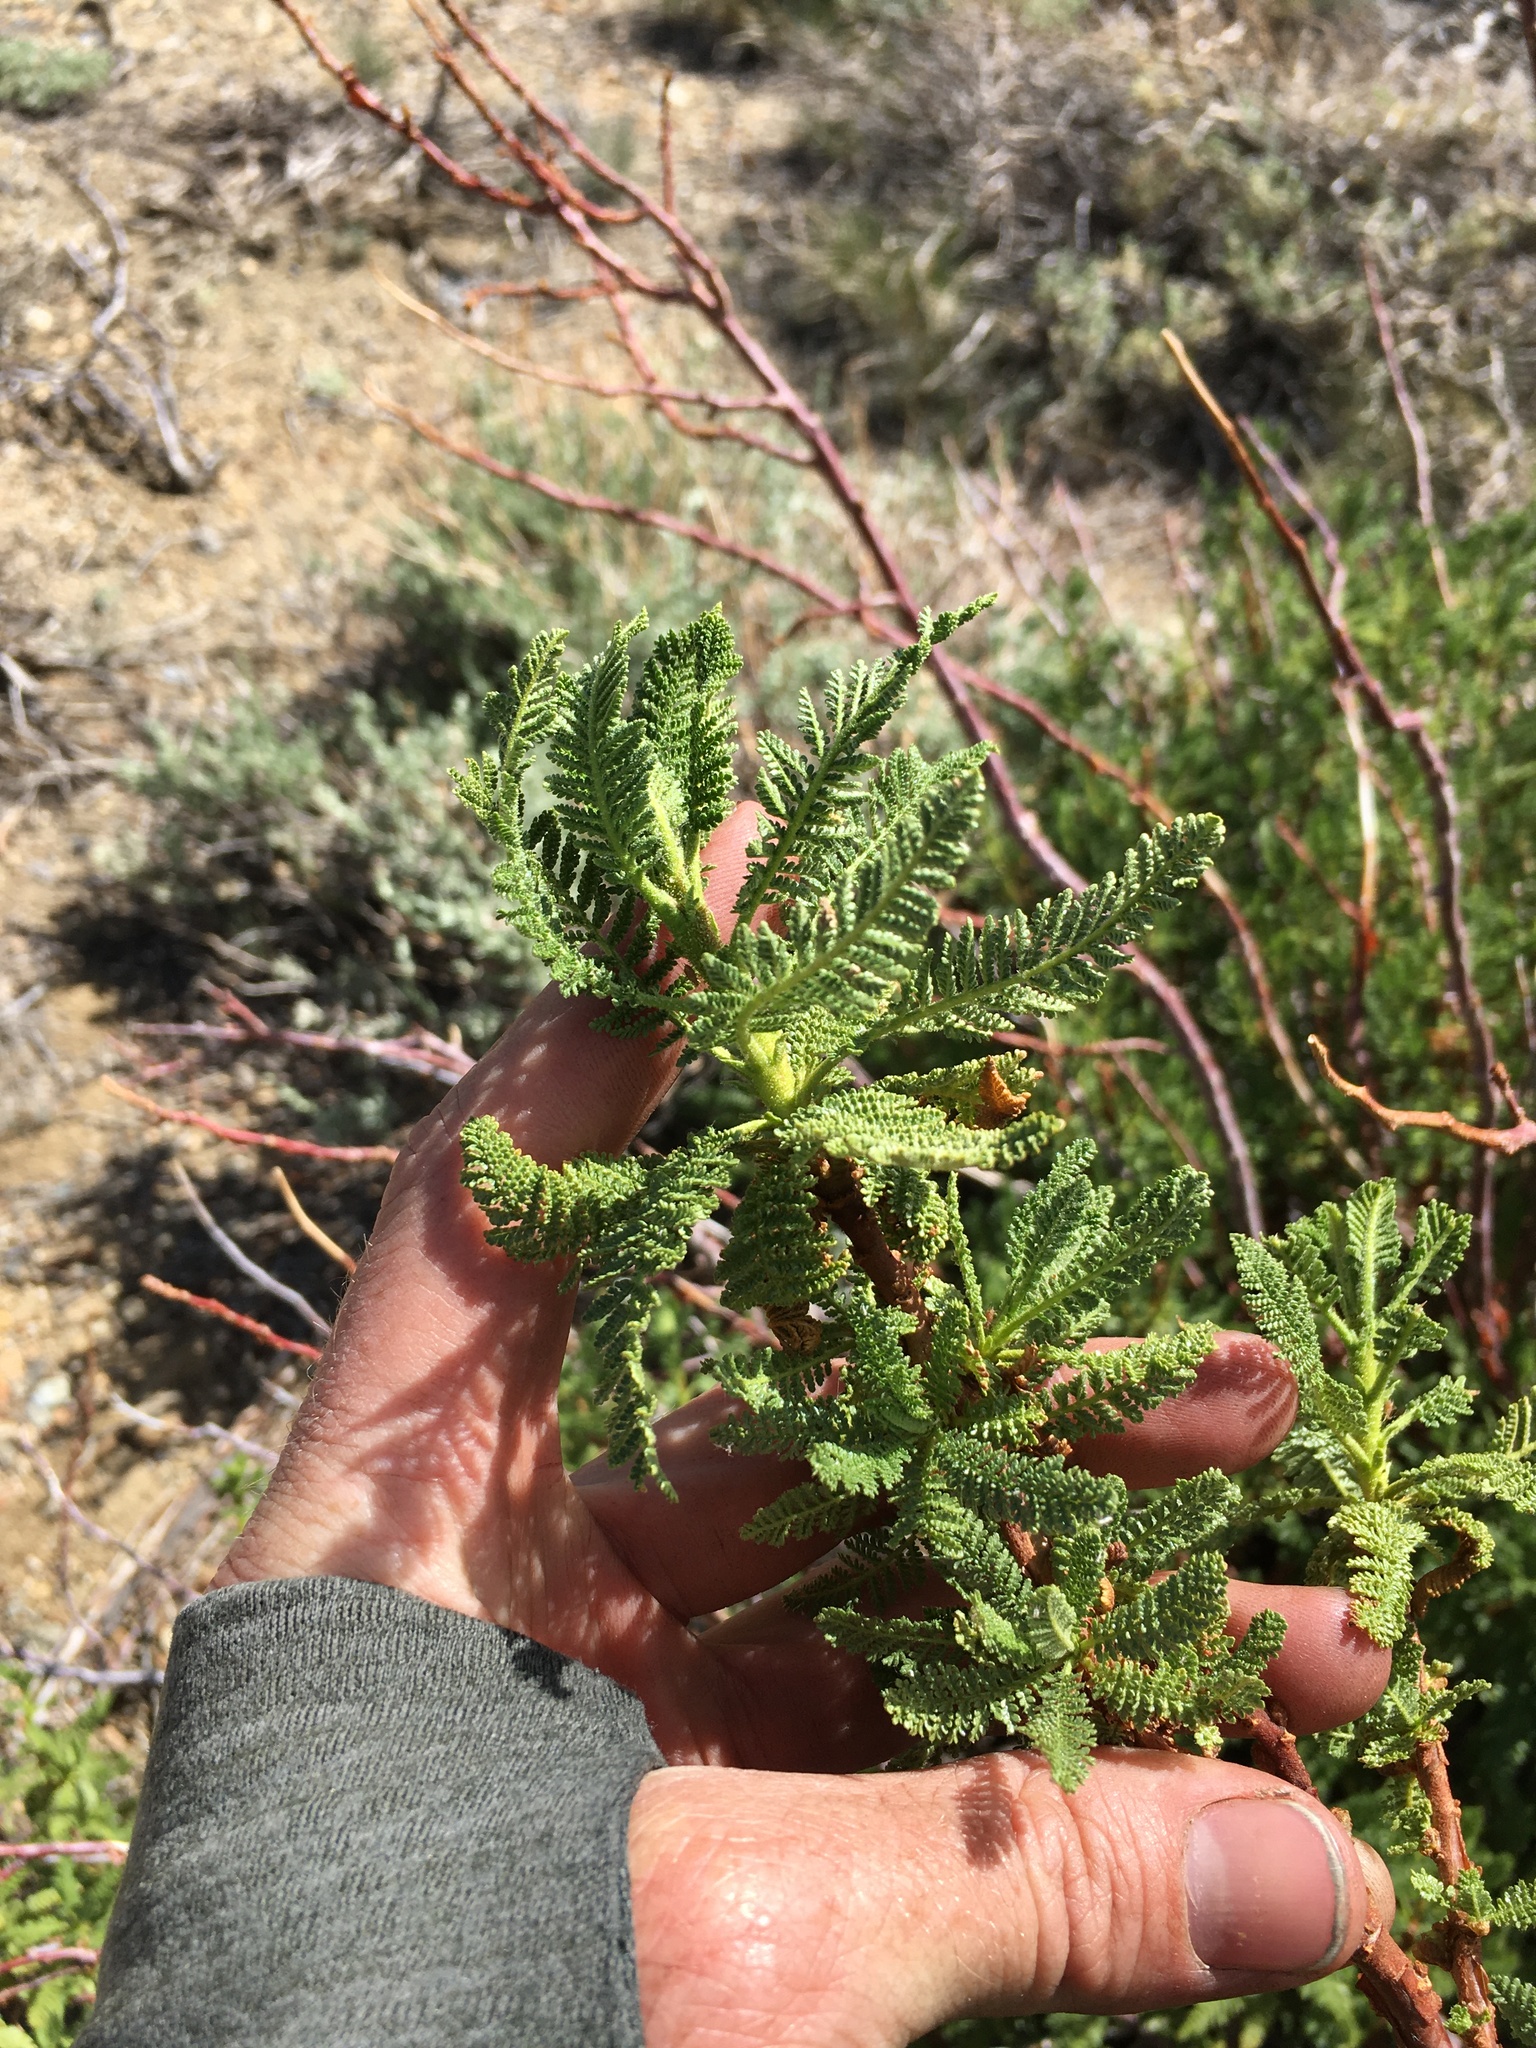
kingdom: Plantae
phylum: Tracheophyta
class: Magnoliopsida
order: Rosales
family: Rosaceae
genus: Chamaebatiaria
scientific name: Chamaebatiaria millefolium
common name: Fernbush
